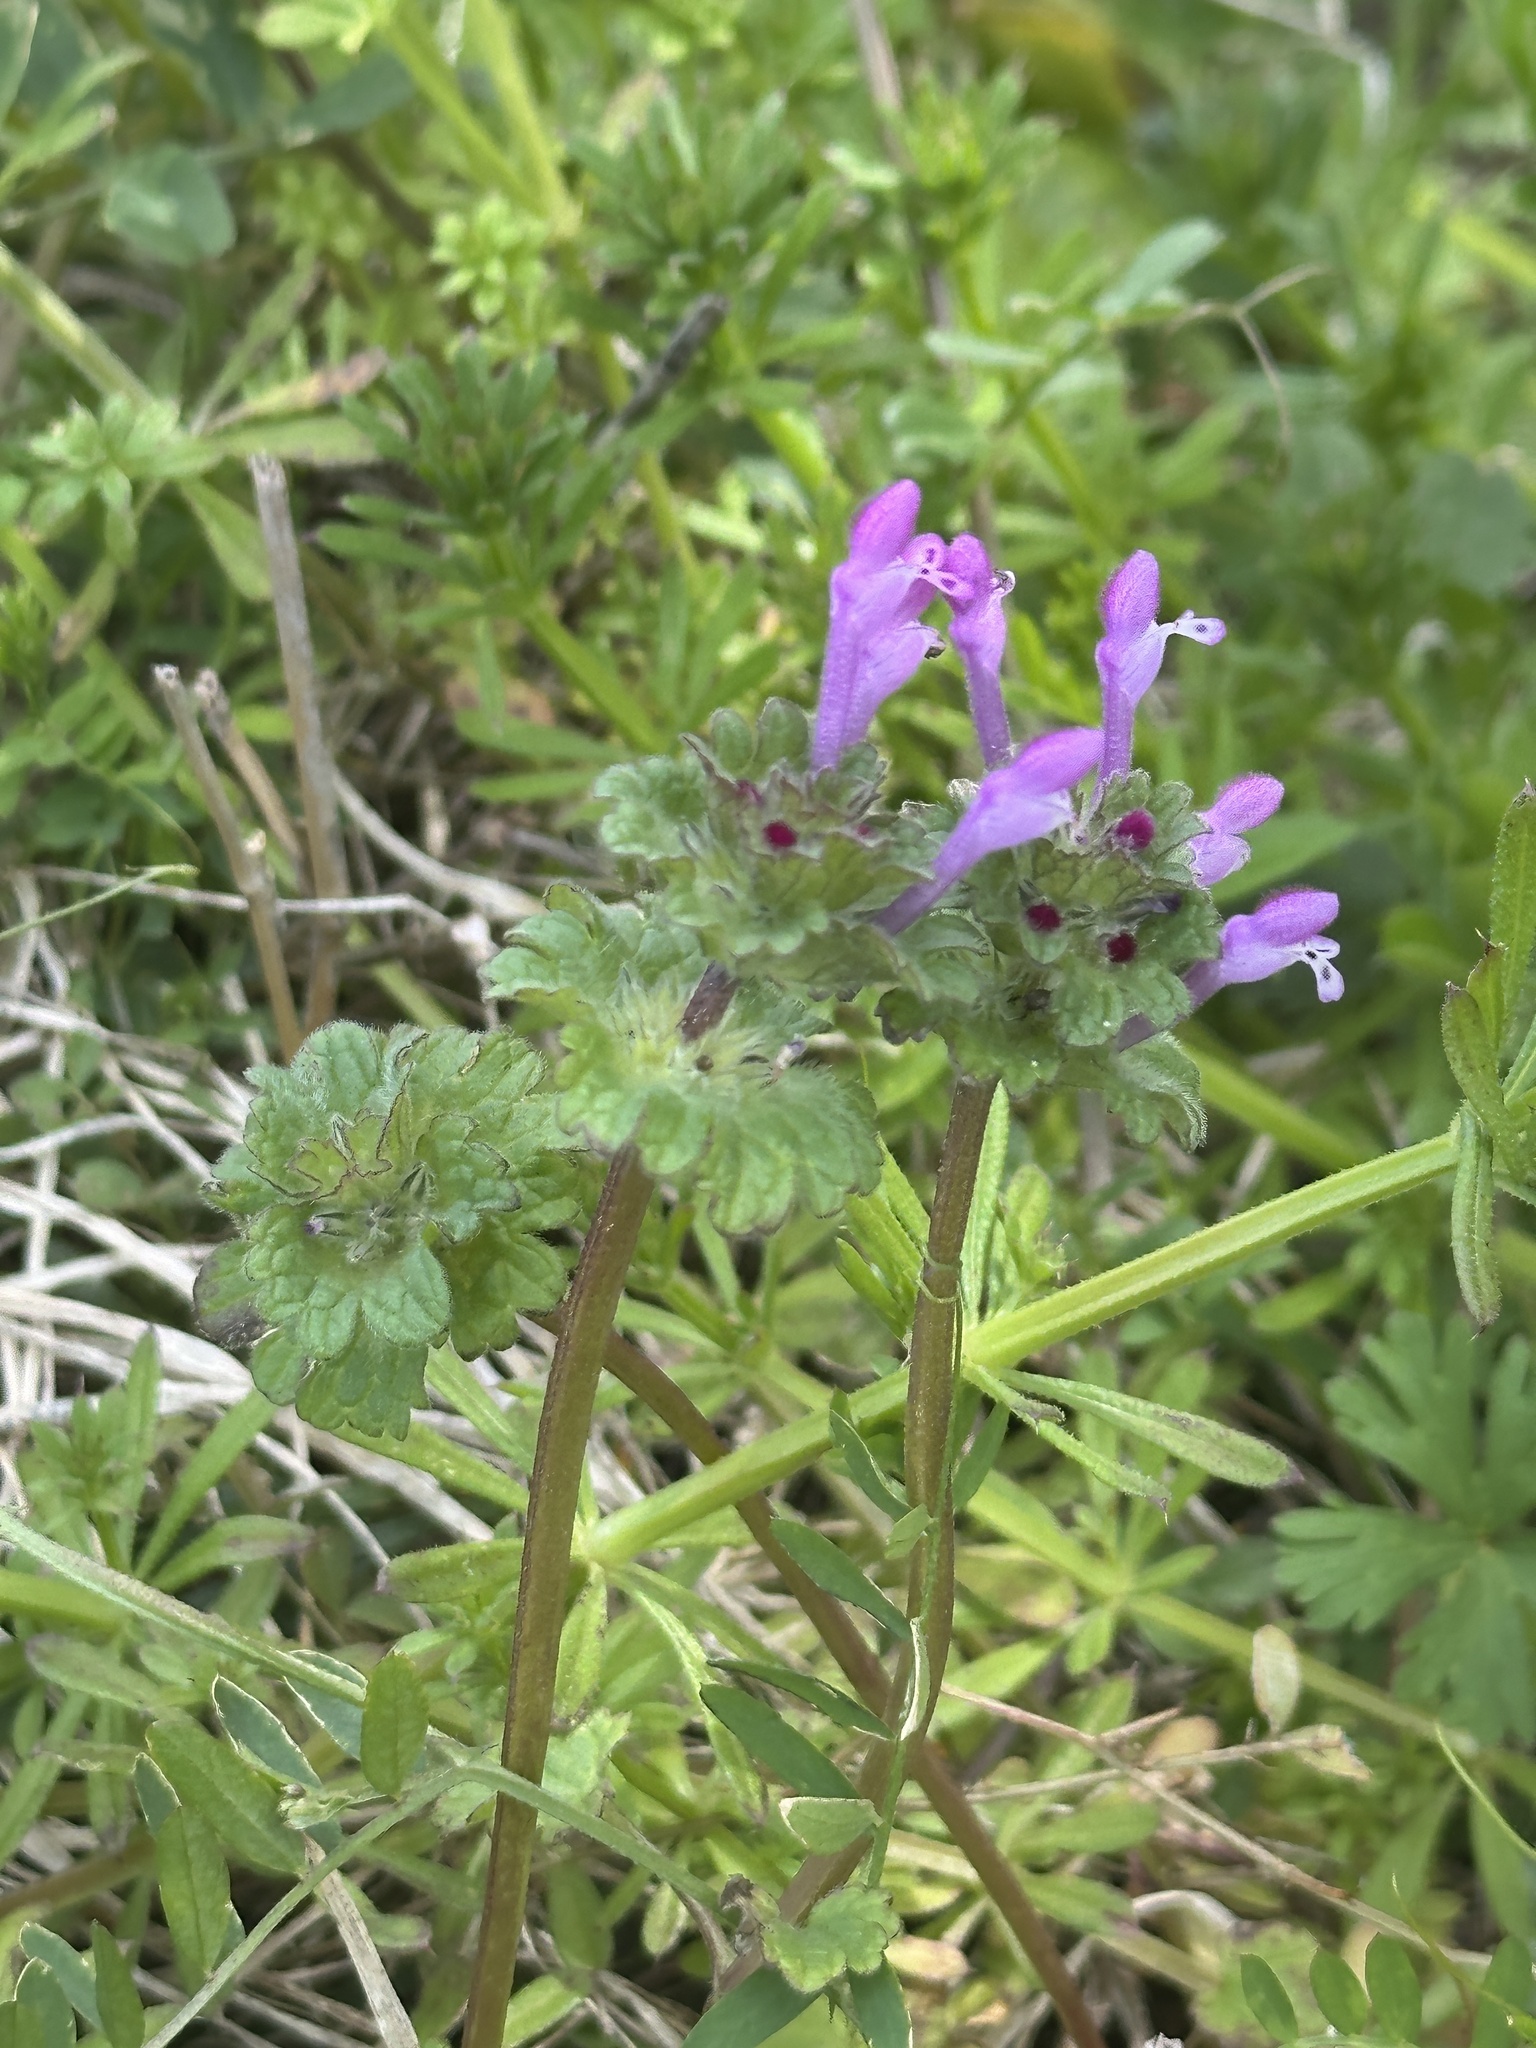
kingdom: Plantae
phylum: Tracheophyta
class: Magnoliopsida
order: Lamiales
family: Lamiaceae
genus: Lamium
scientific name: Lamium amplexicaule
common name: Henbit dead-nettle
